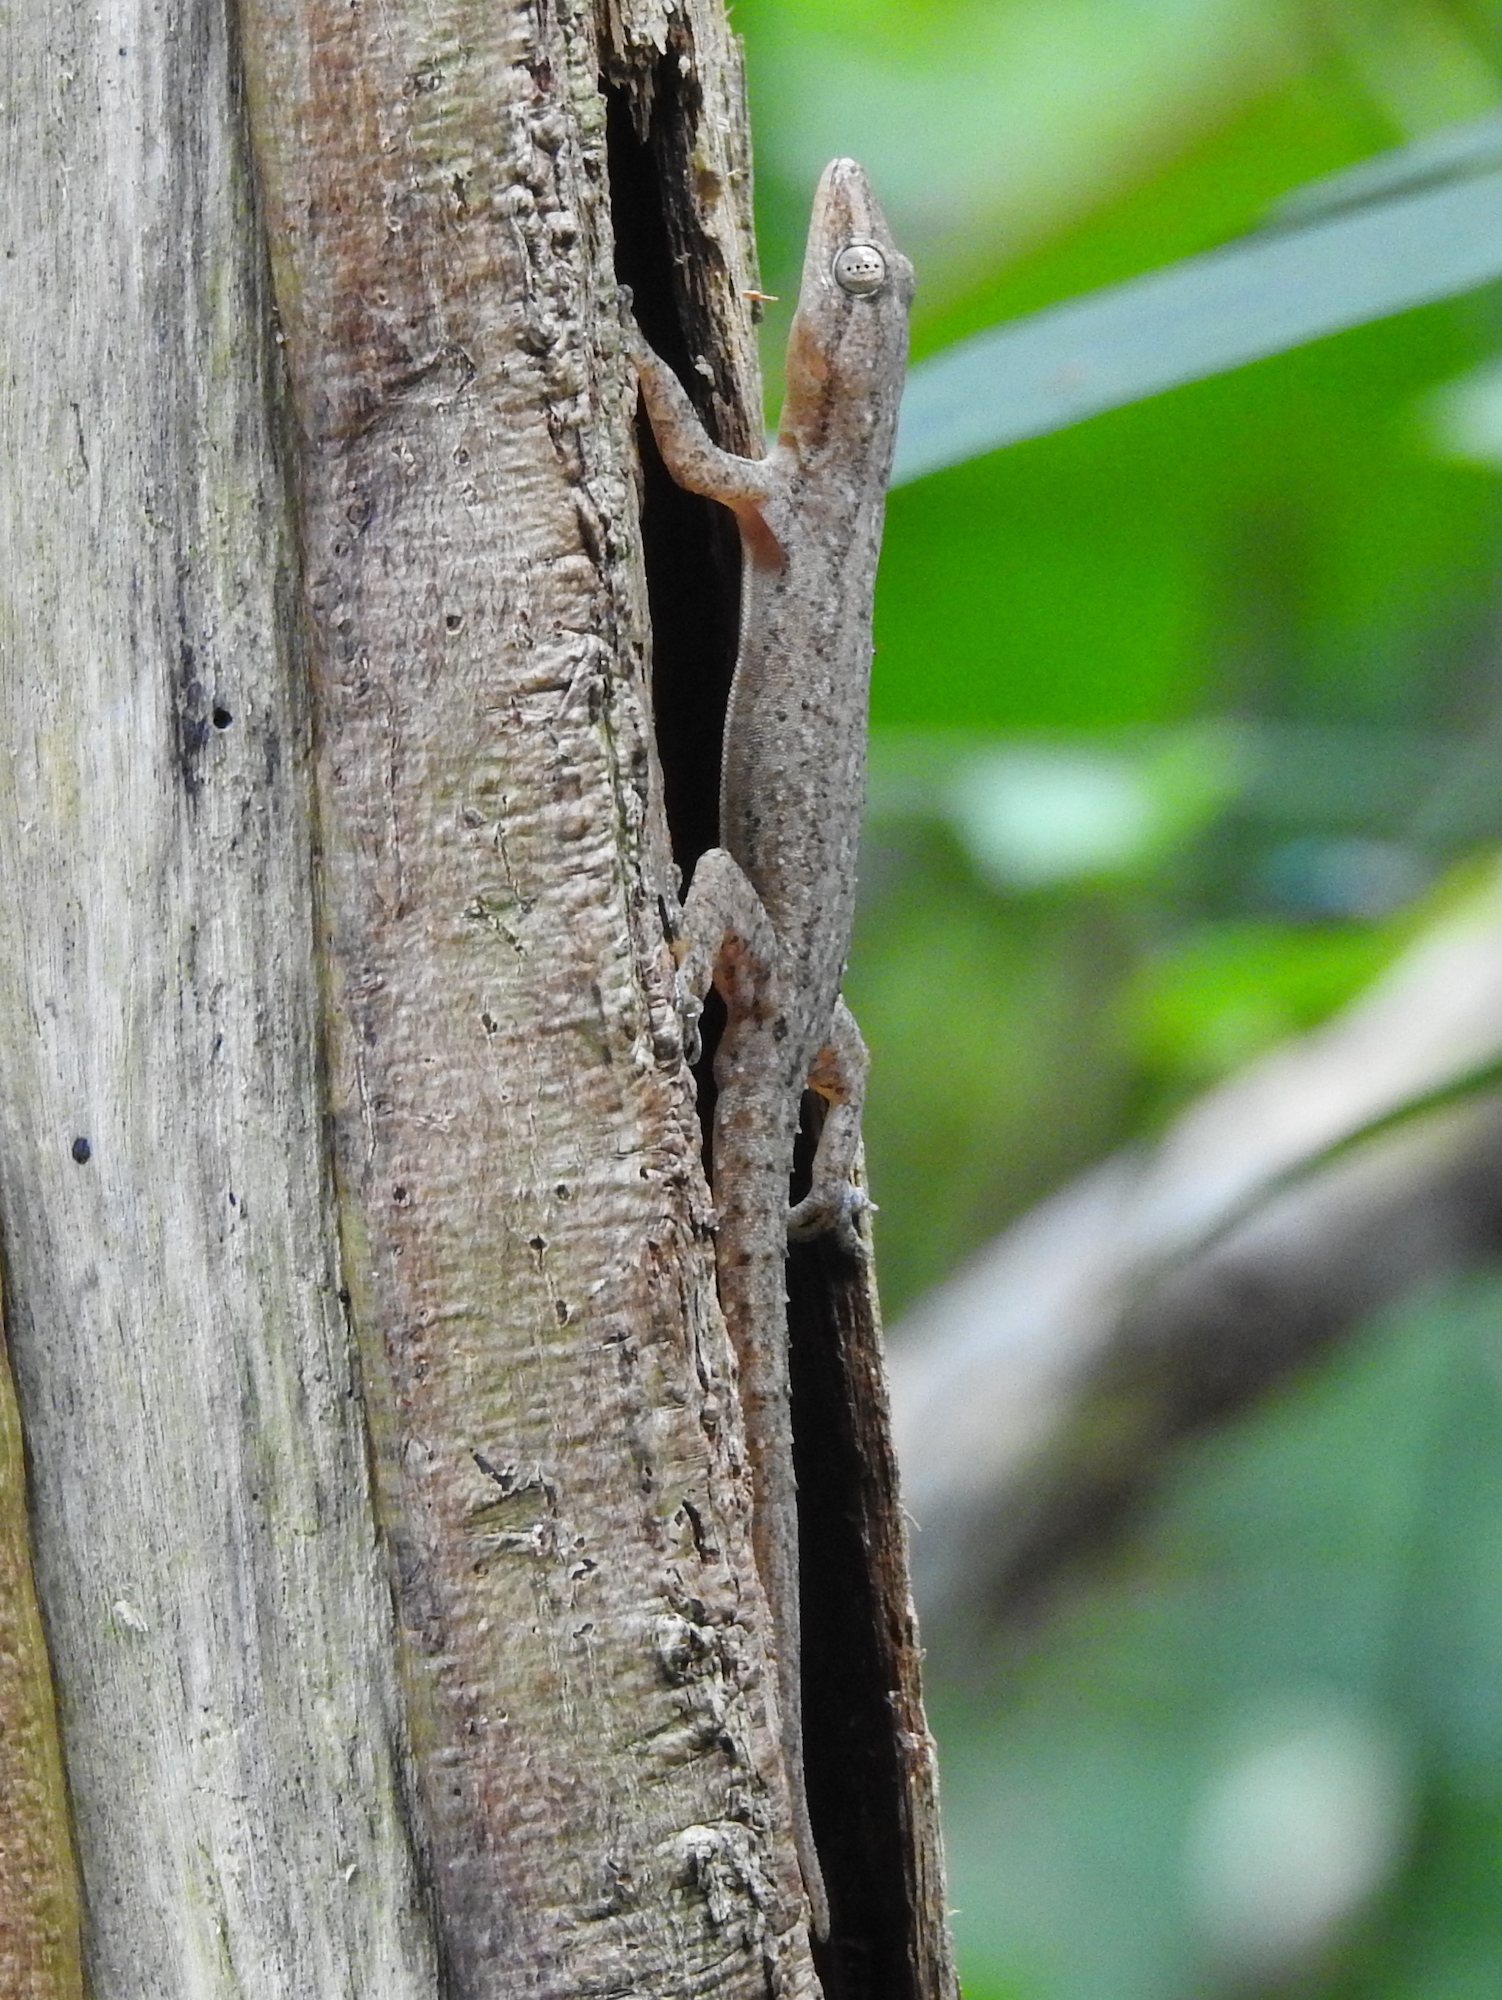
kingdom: Animalia
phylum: Chordata
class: Squamata
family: Gekkonidae
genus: Hemidactylus
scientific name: Hemidactylus frenatus
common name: Common house gecko
